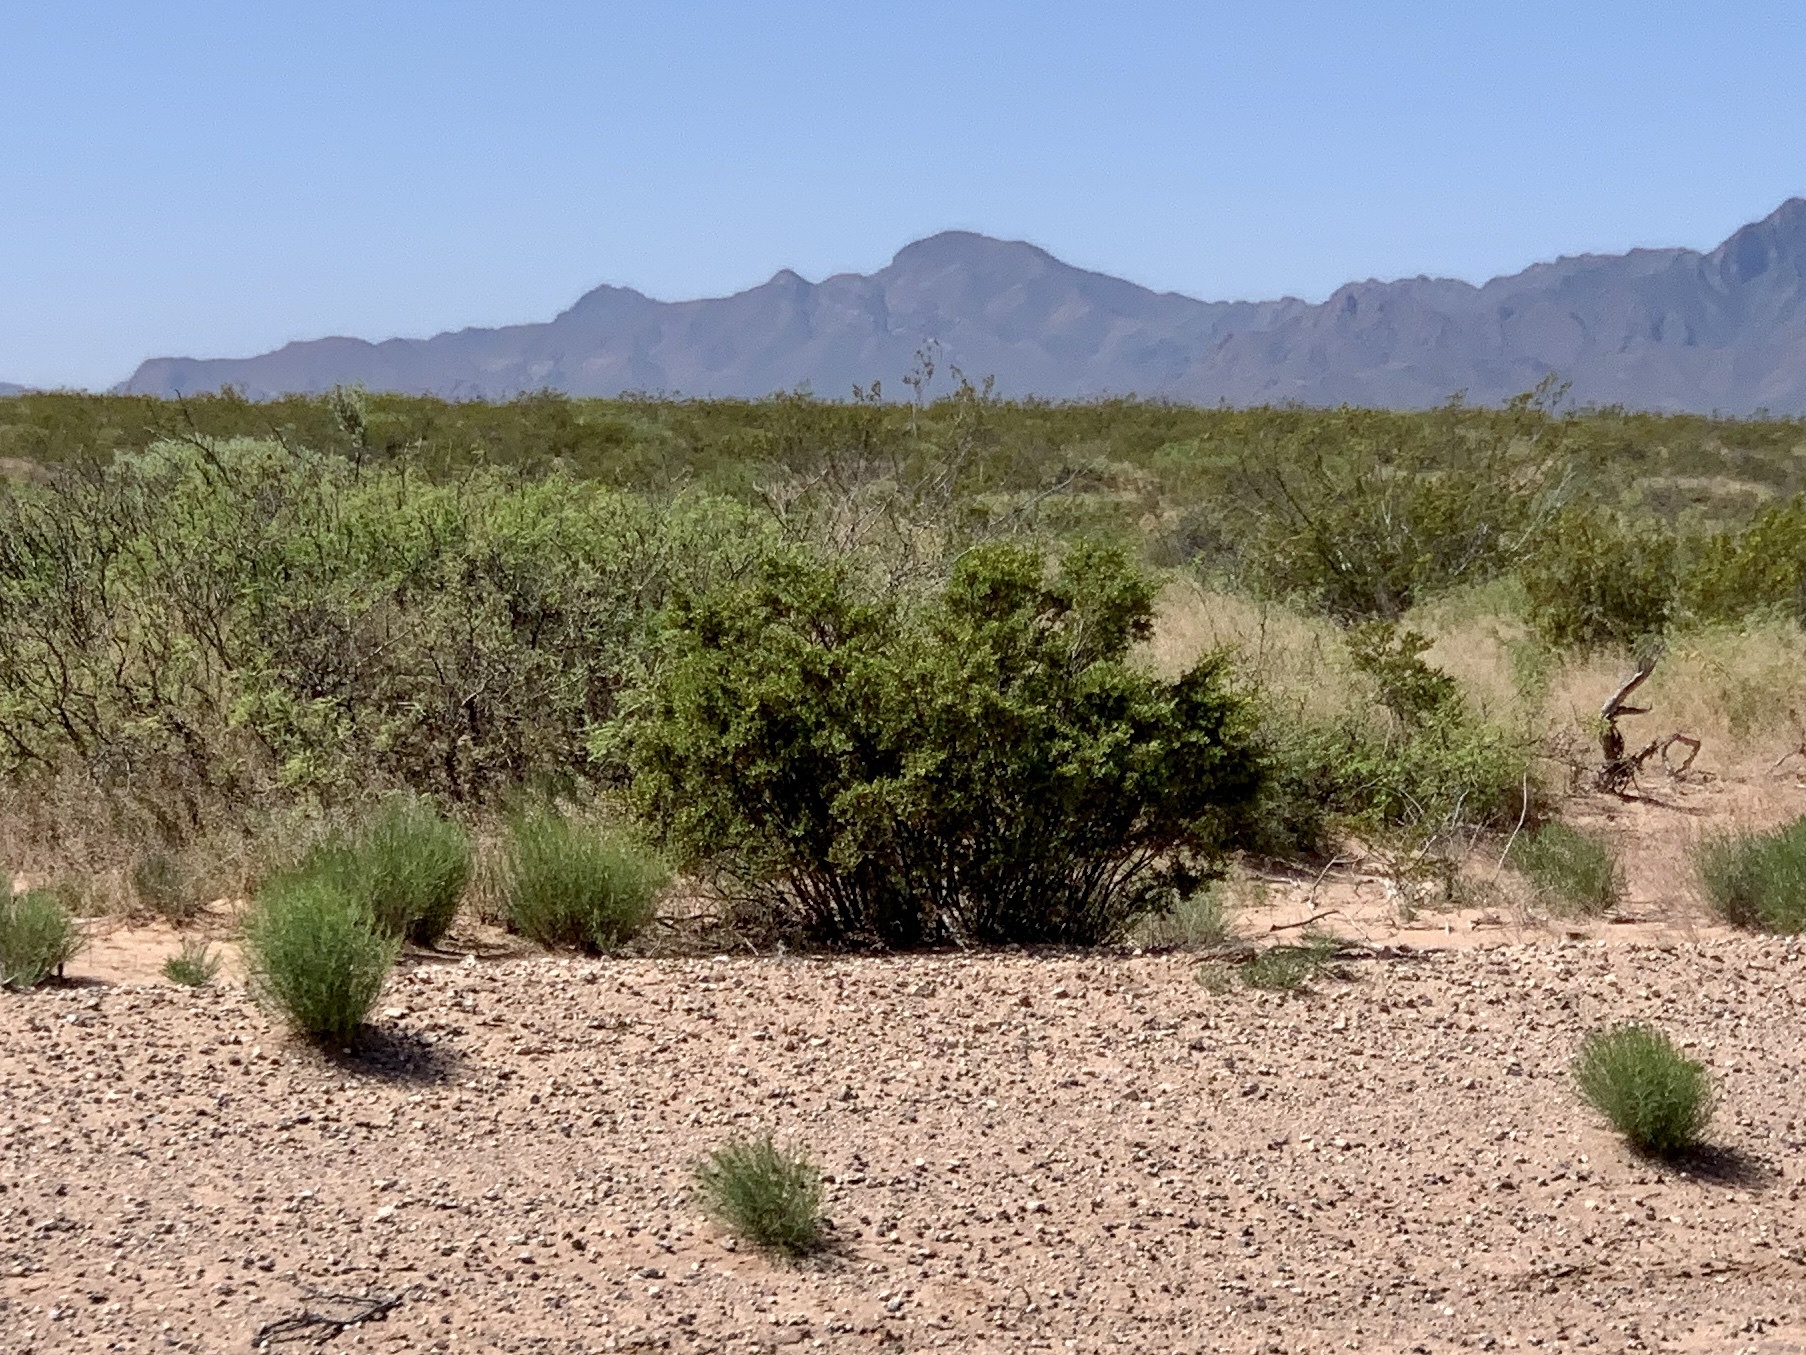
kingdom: Plantae
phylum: Tracheophyta
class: Magnoliopsida
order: Zygophyllales
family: Zygophyllaceae
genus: Larrea
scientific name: Larrea tridentata
